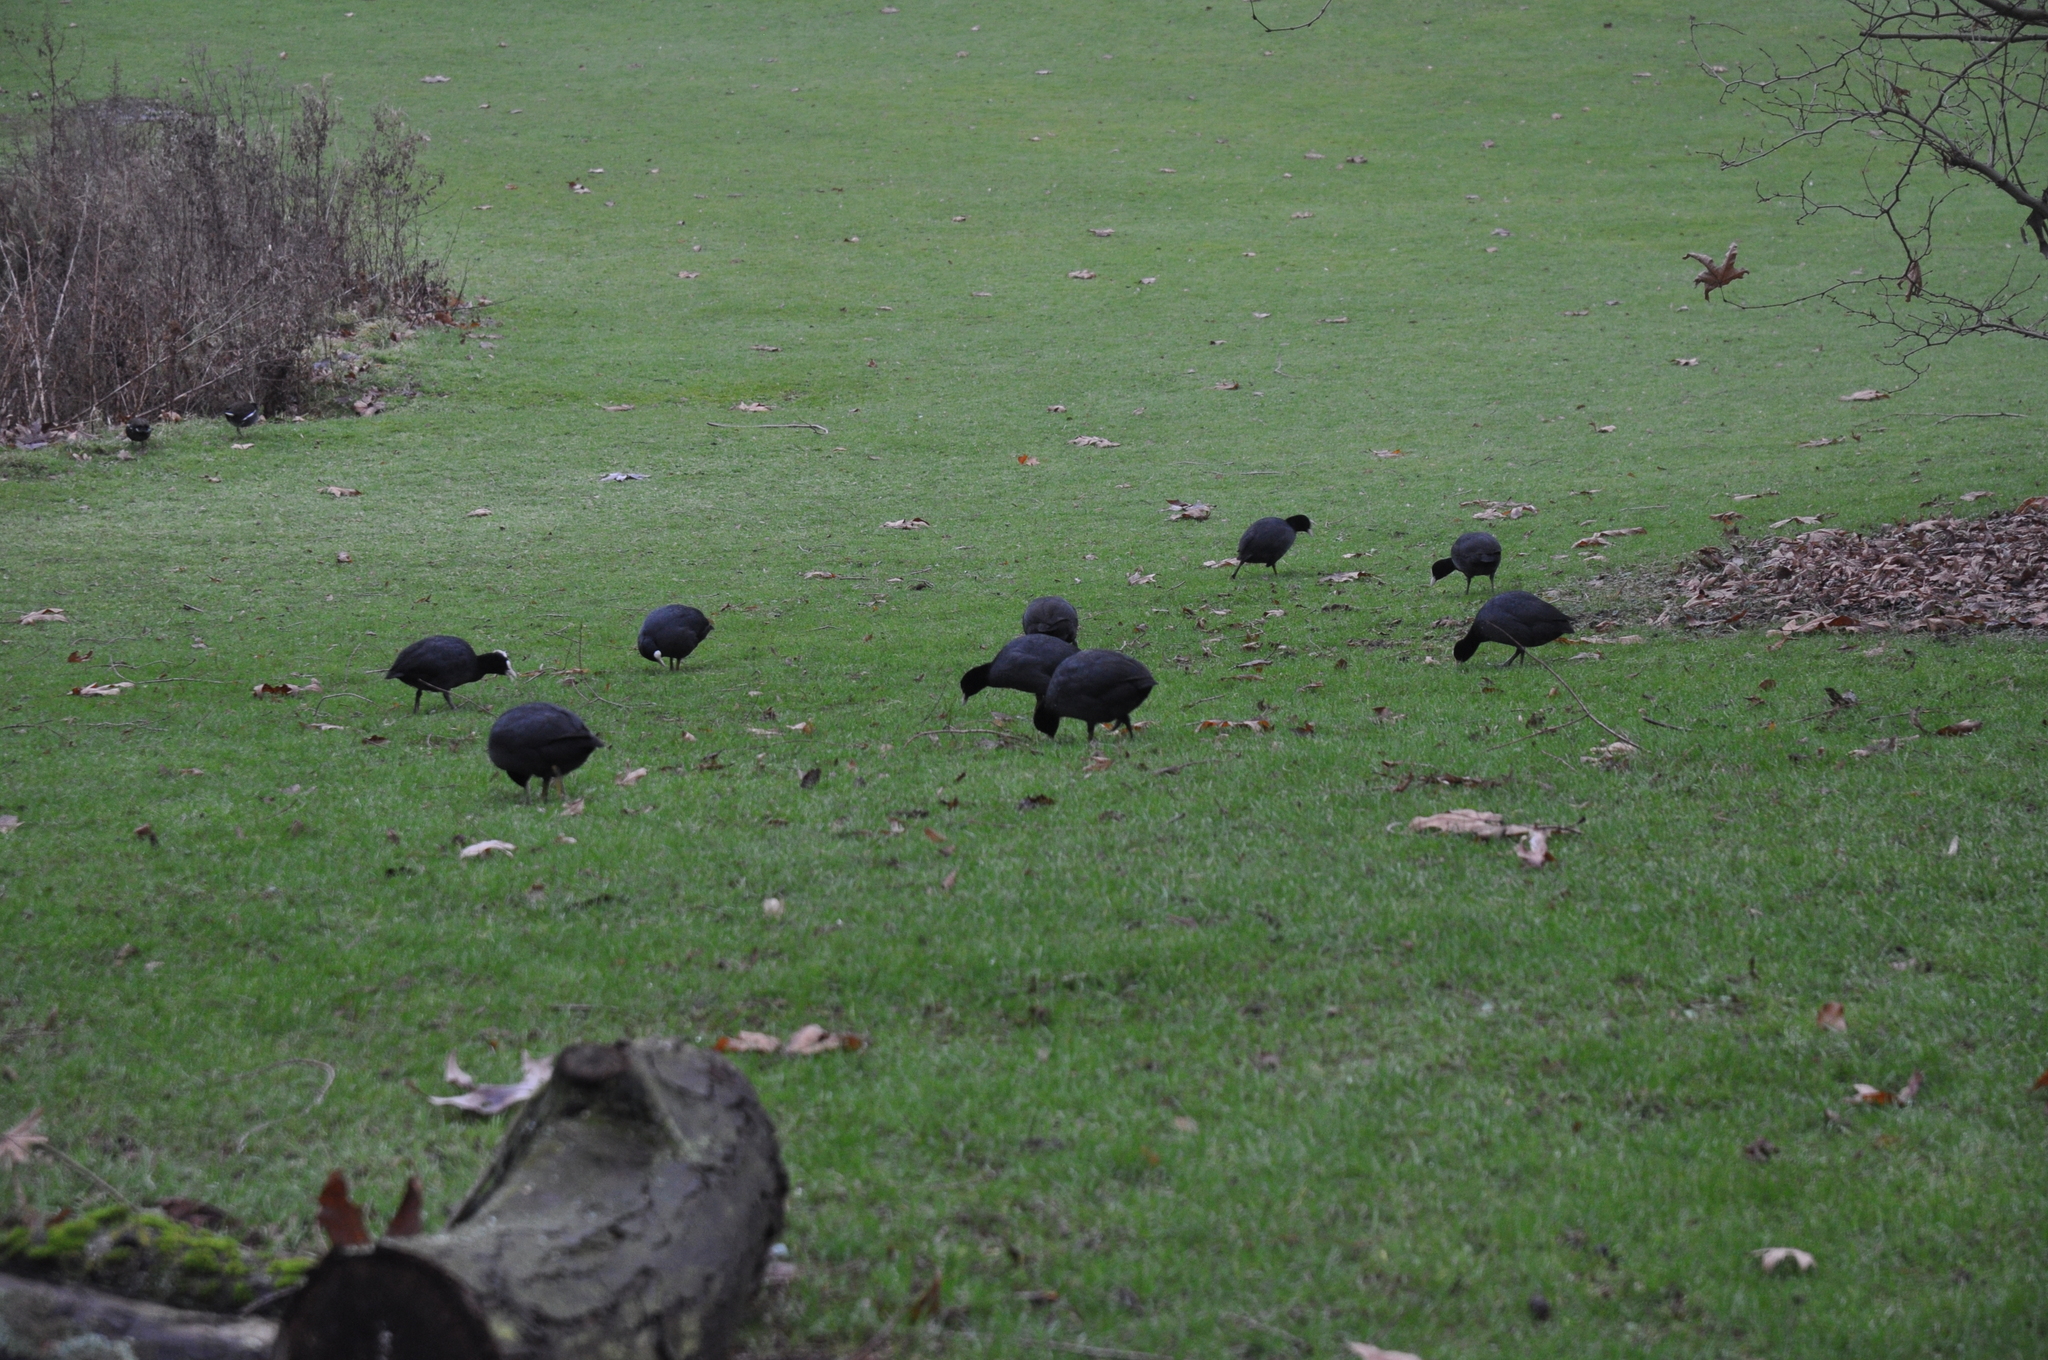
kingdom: Animalia
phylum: Chordata
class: Aves
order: Gruiformes
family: Rallidae
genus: Fulica
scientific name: Fulica atra
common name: Eurasian coot
